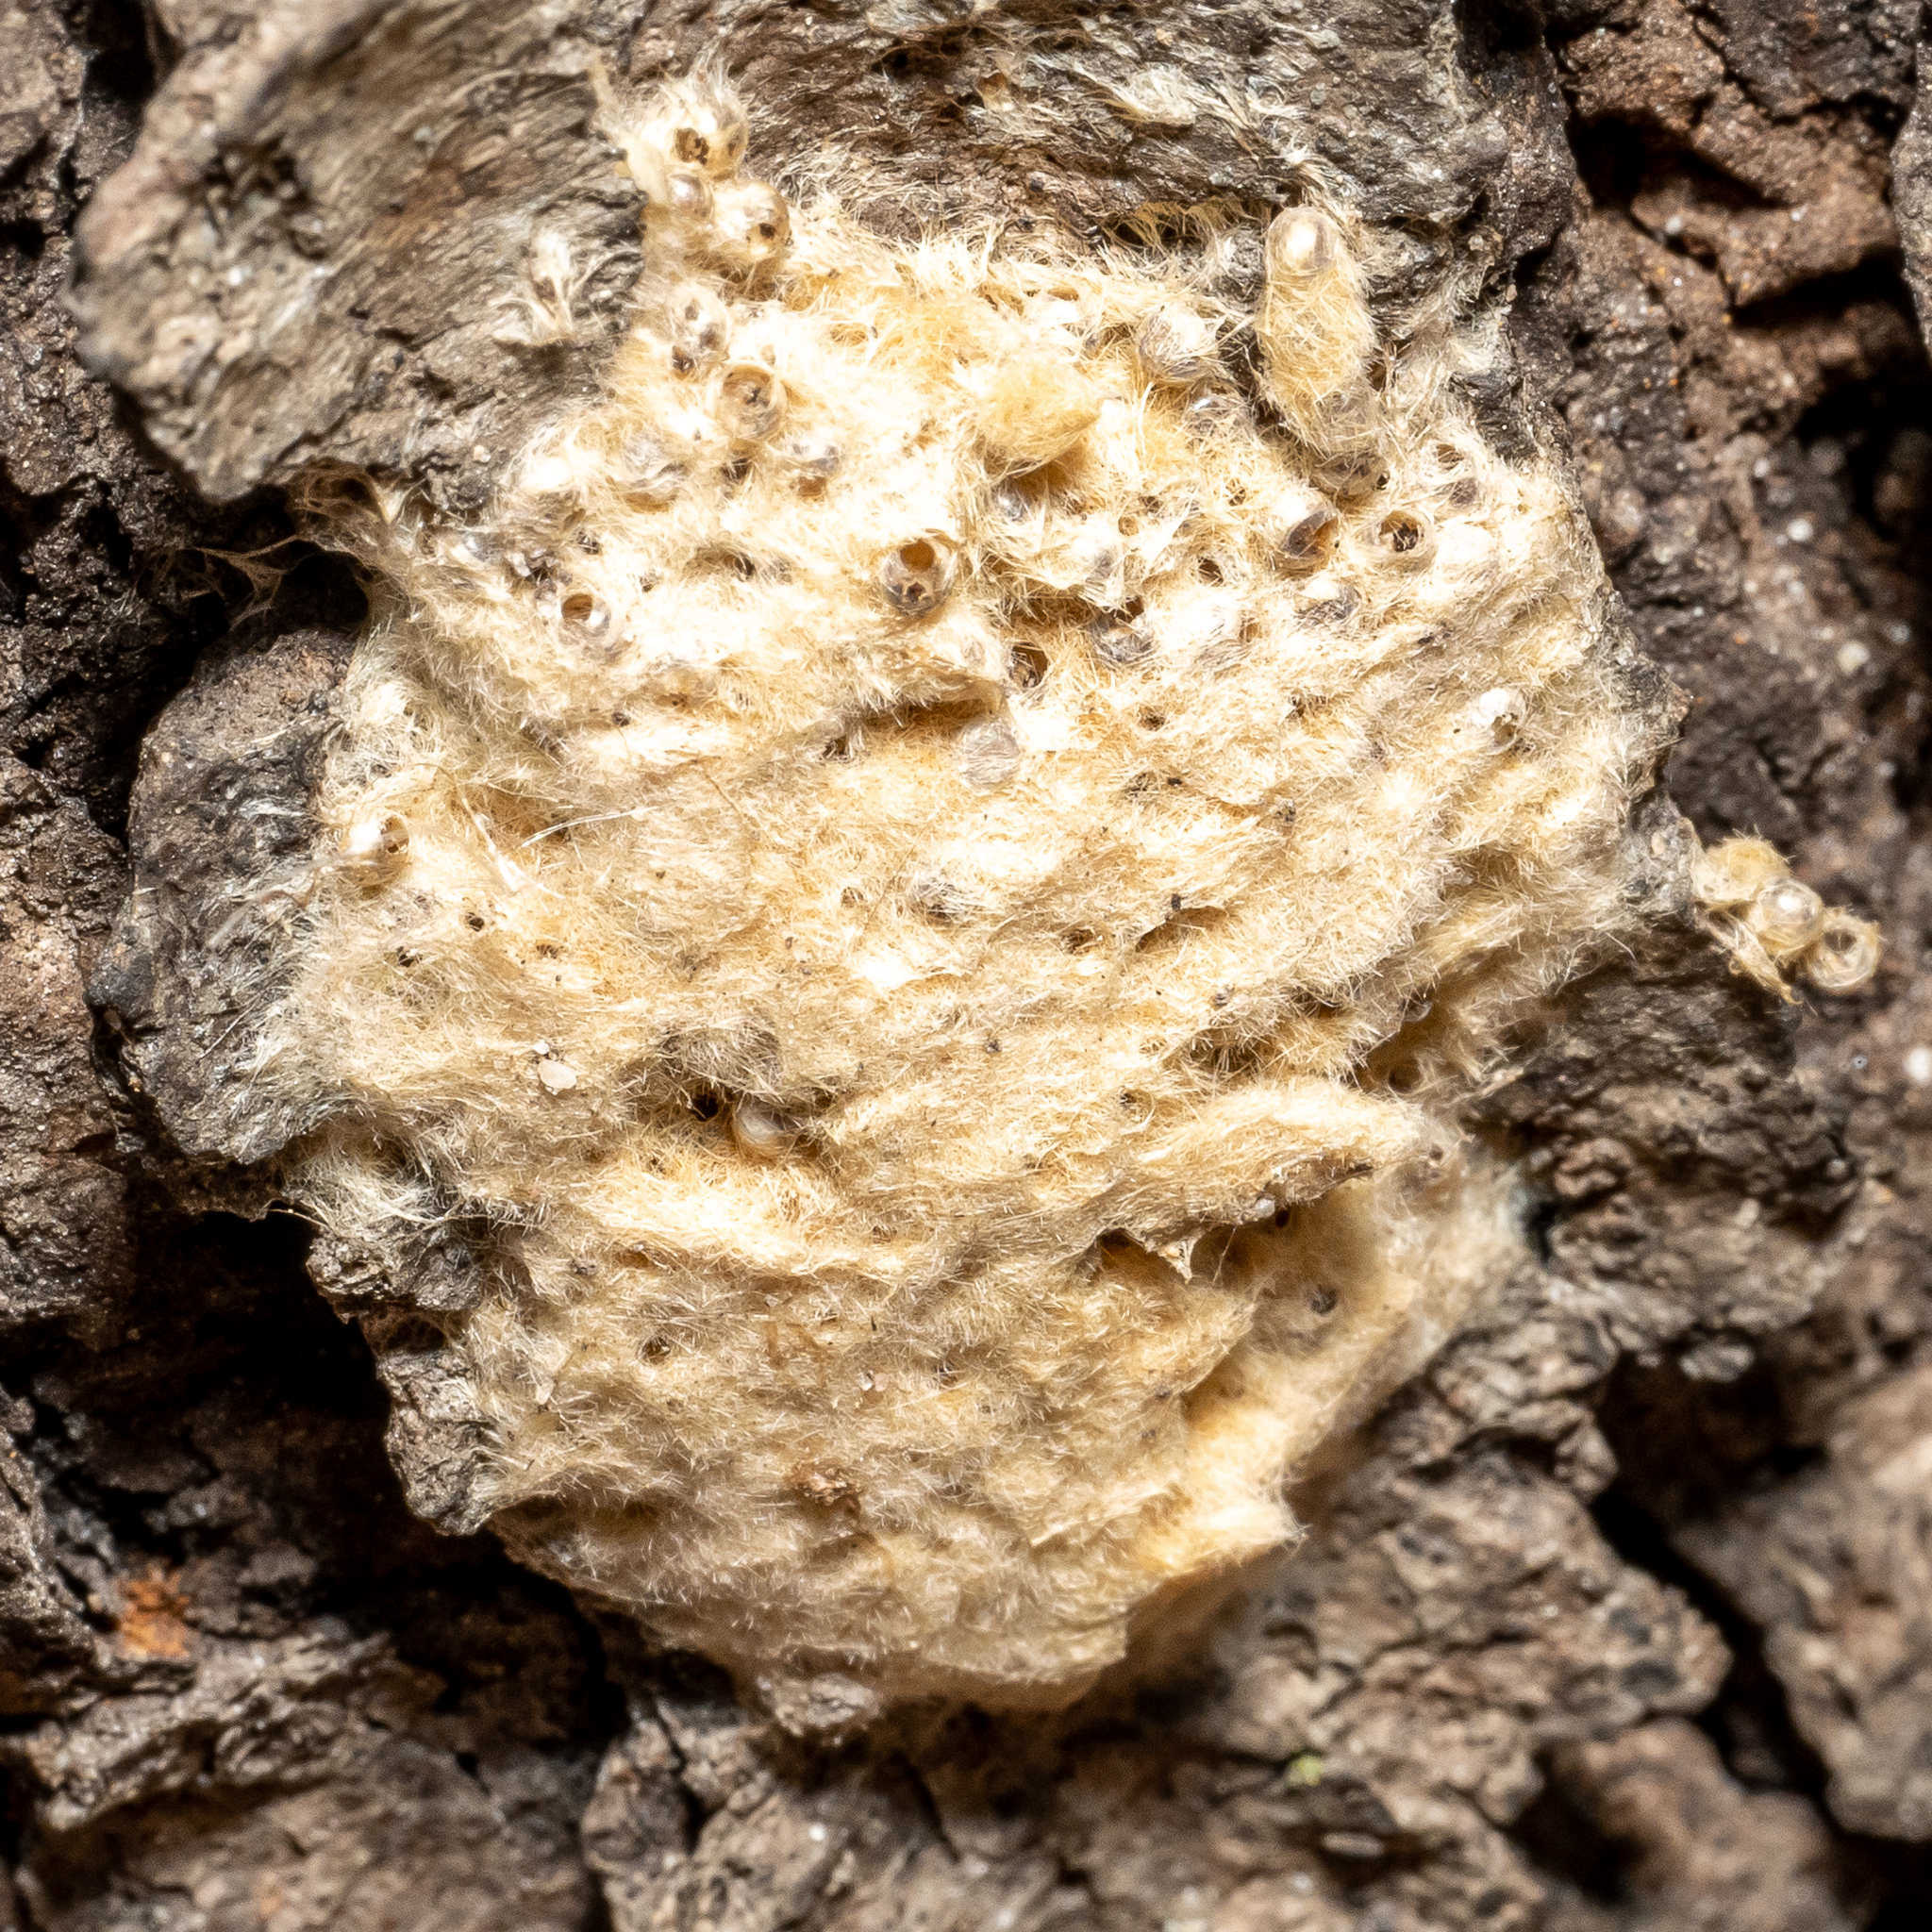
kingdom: Animalia
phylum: Arthropoda
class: Insecta
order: Lepidoptera
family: Erebidae
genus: Lymantria
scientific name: Lymantria dispar
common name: Gypsy moth
